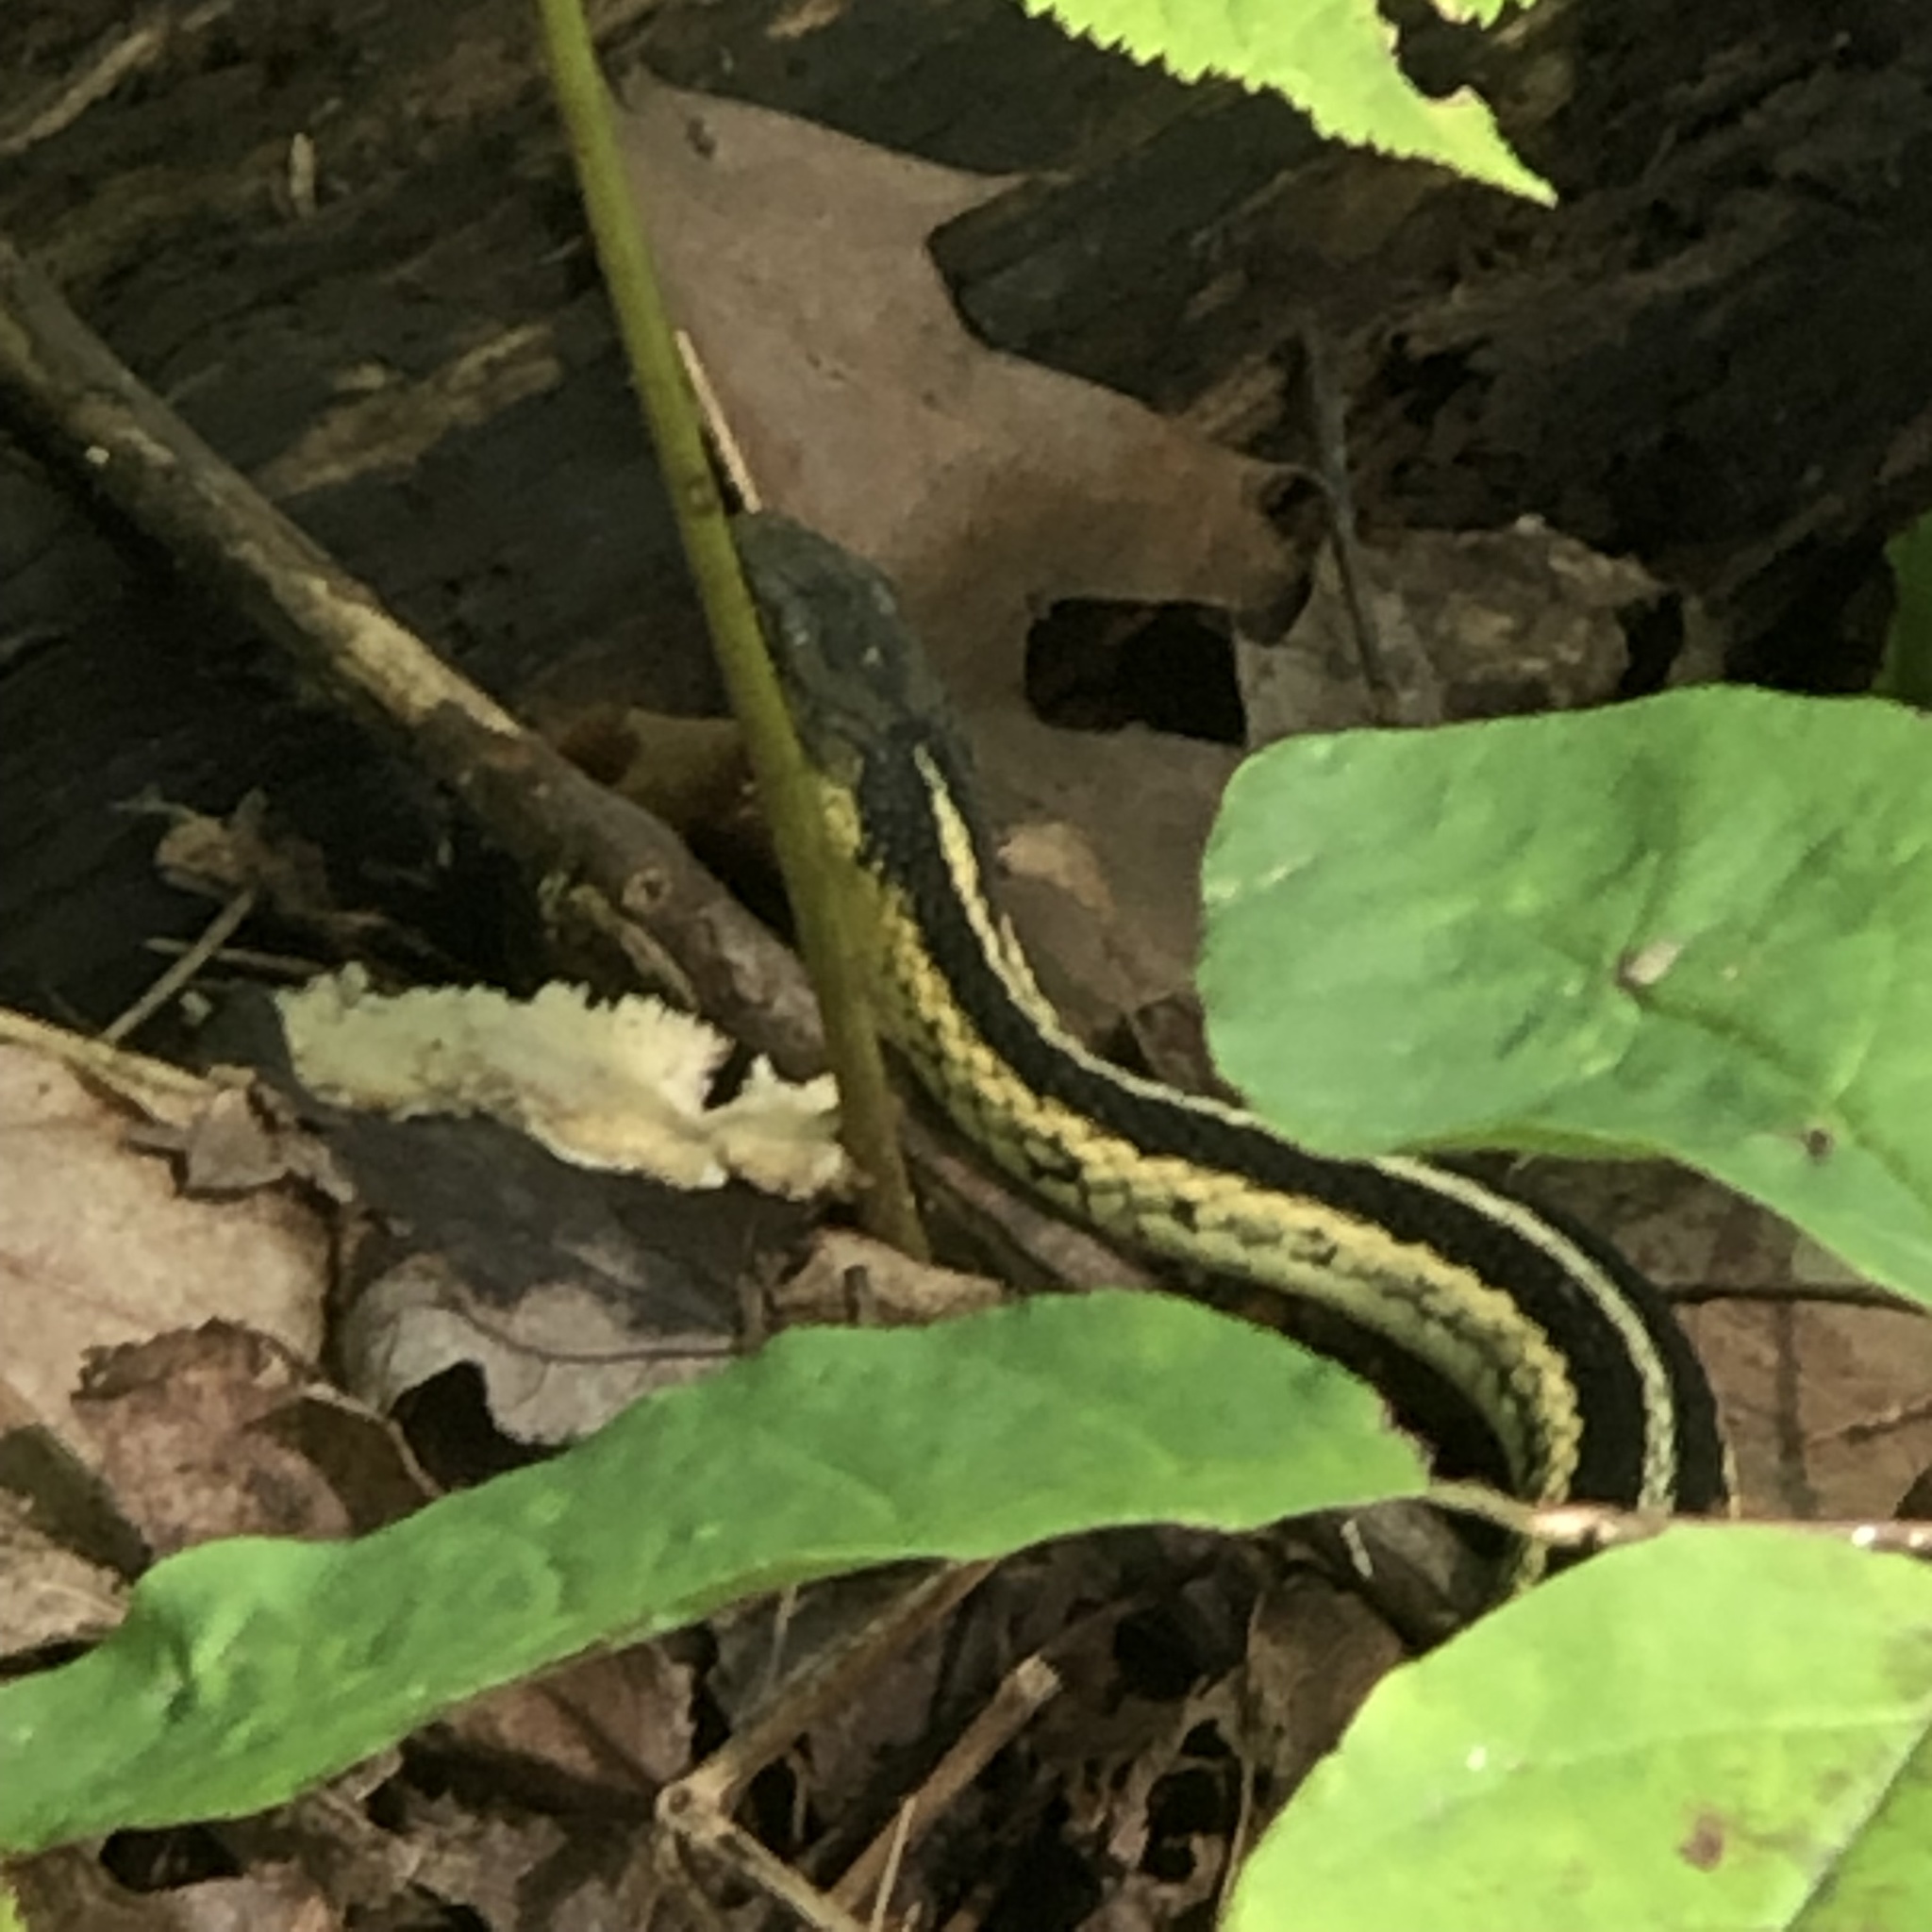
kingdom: Animalia
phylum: Chordata
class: Squamata
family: Colubridae
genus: Thamnophis
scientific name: Thamnophis sirtalis
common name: Common garter snake
